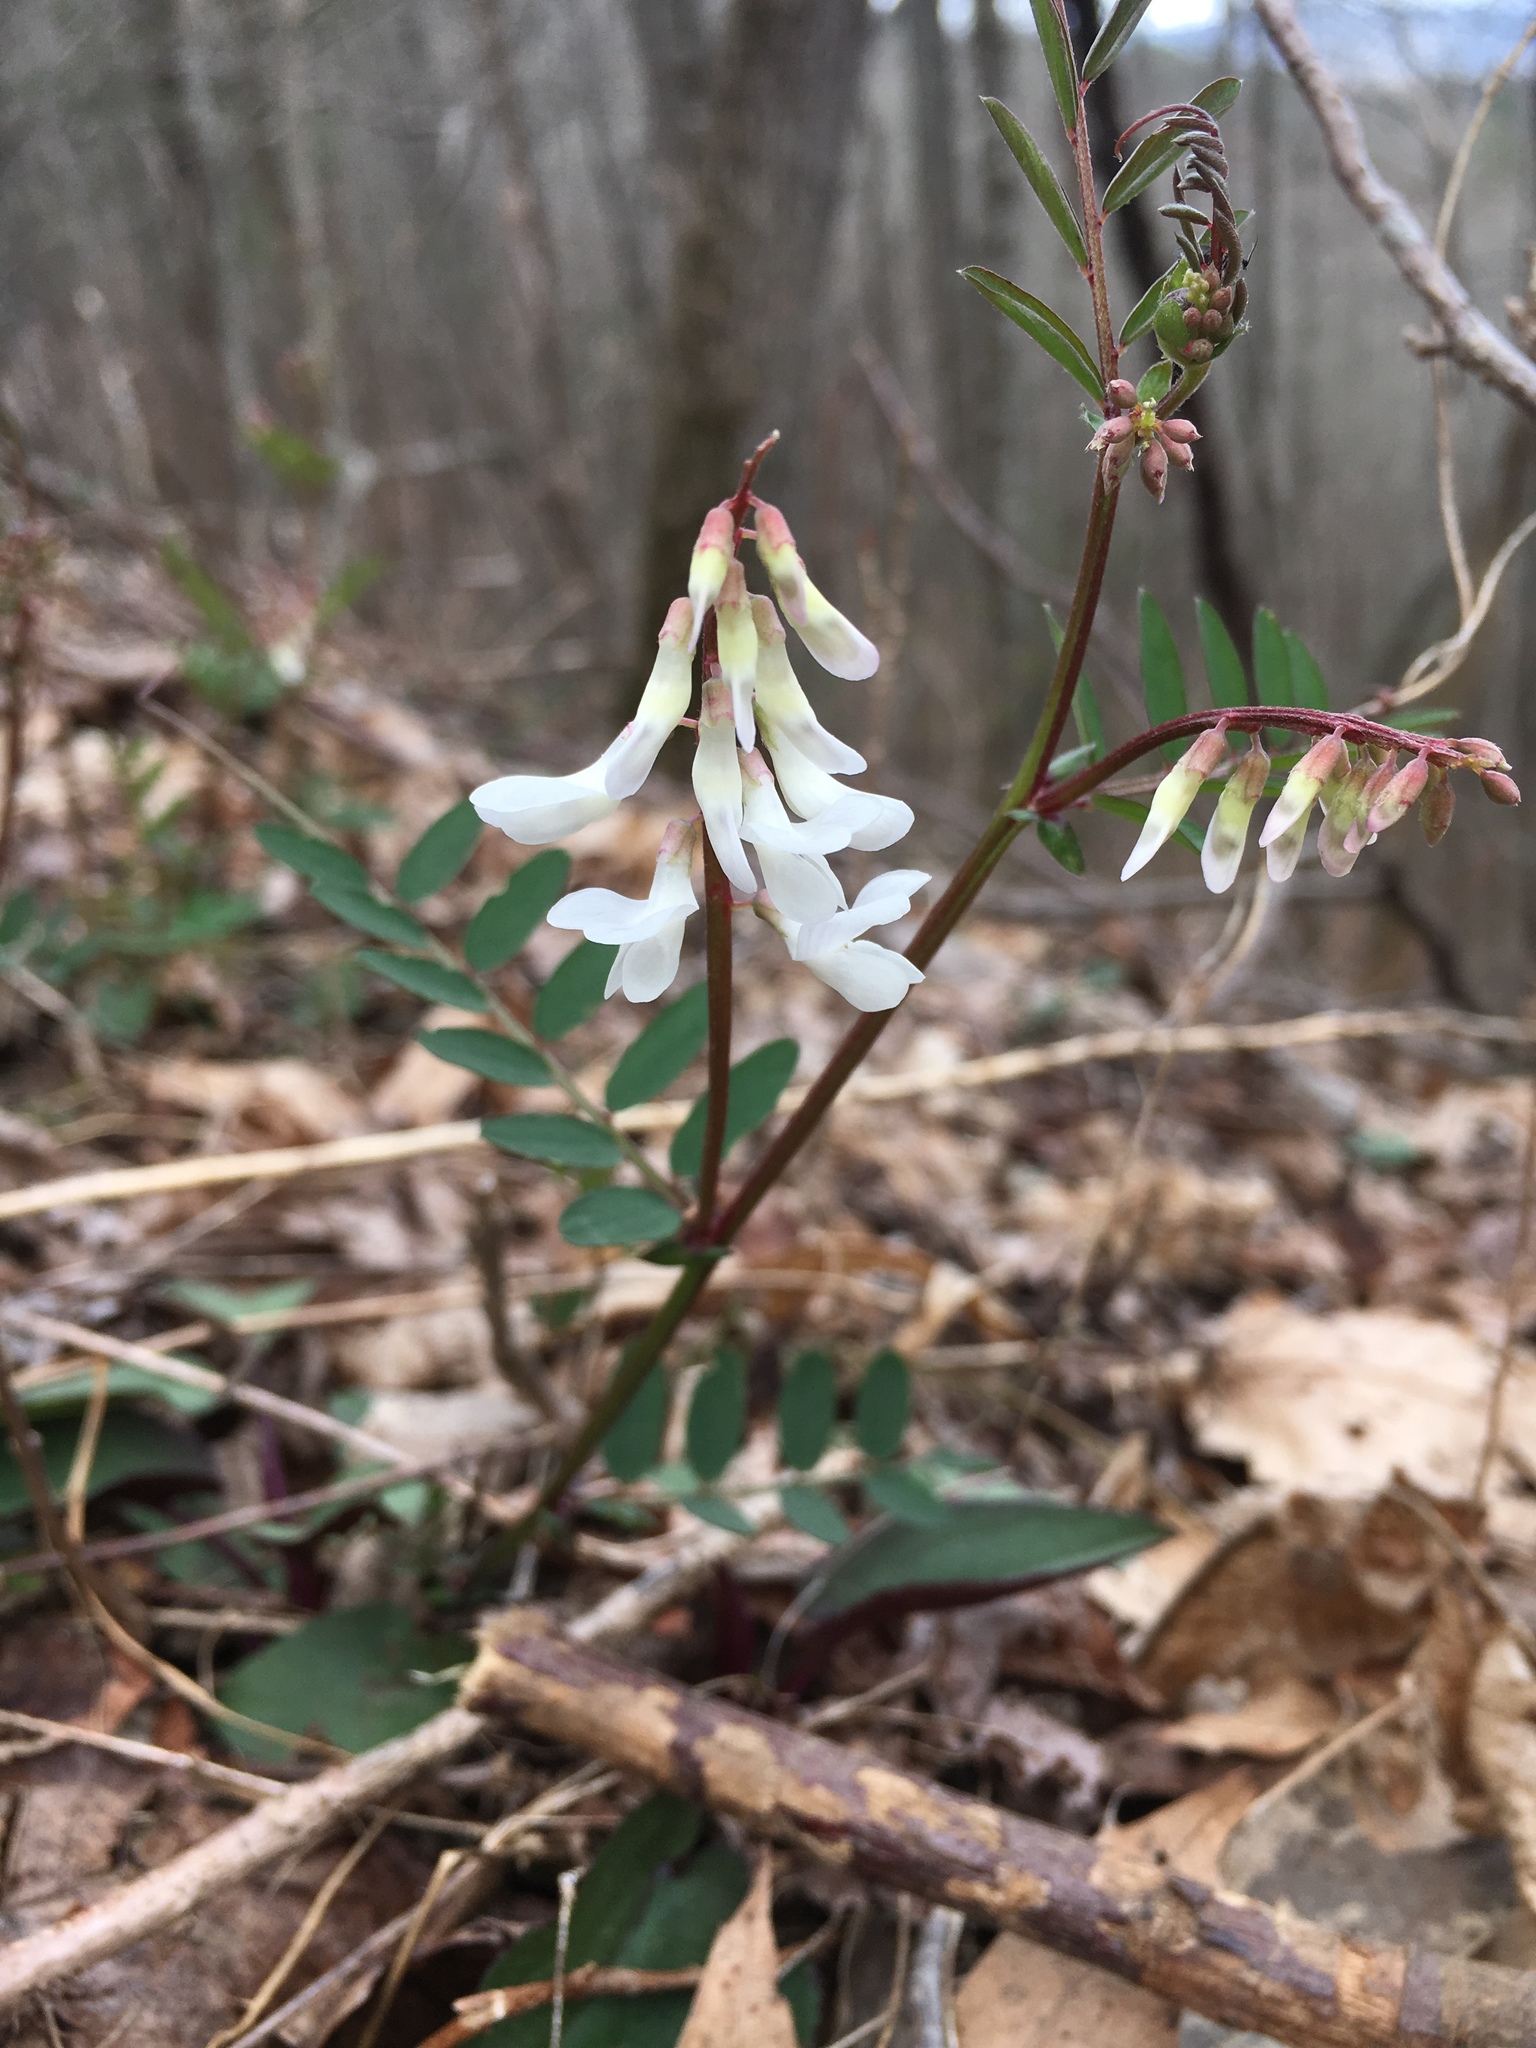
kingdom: Plantae
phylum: Tracheophyta
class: Magnoliopsida
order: Fabales
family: Fabaceae
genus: Vicia
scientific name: Vicia caroliniana
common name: Carolina vetch
